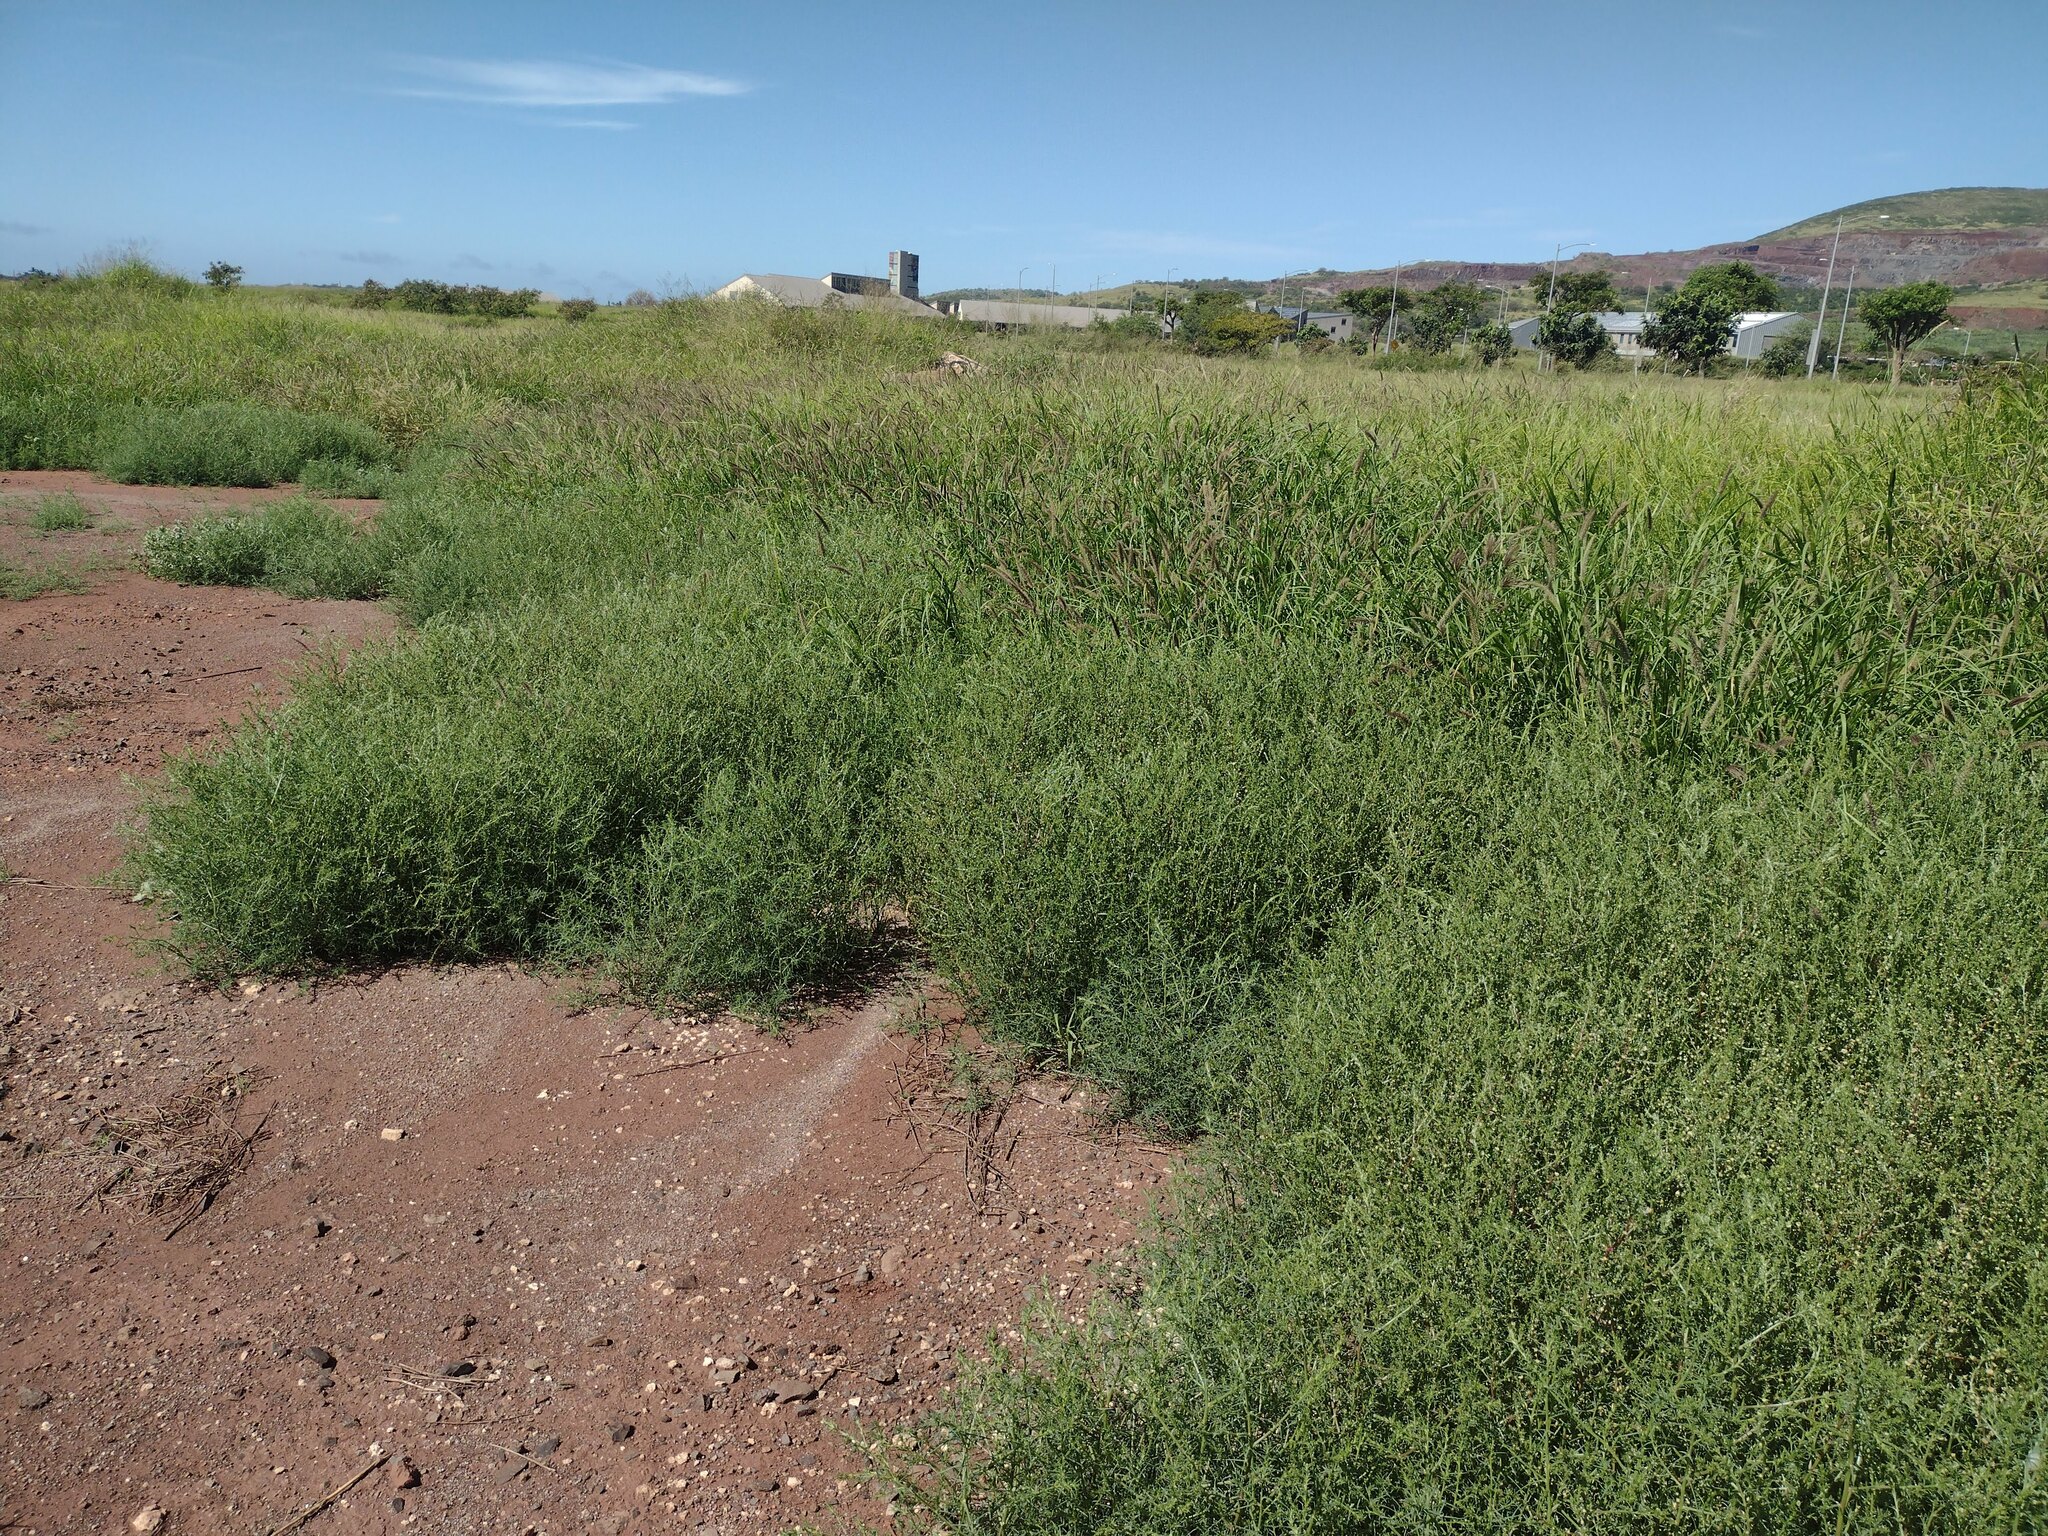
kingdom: Plantae
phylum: Tracheophyta
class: Magnoliopsida
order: Caryophyllales
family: Amaranthaceae
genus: Salsola
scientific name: Salsola tragus
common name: Prickly russian thistle
